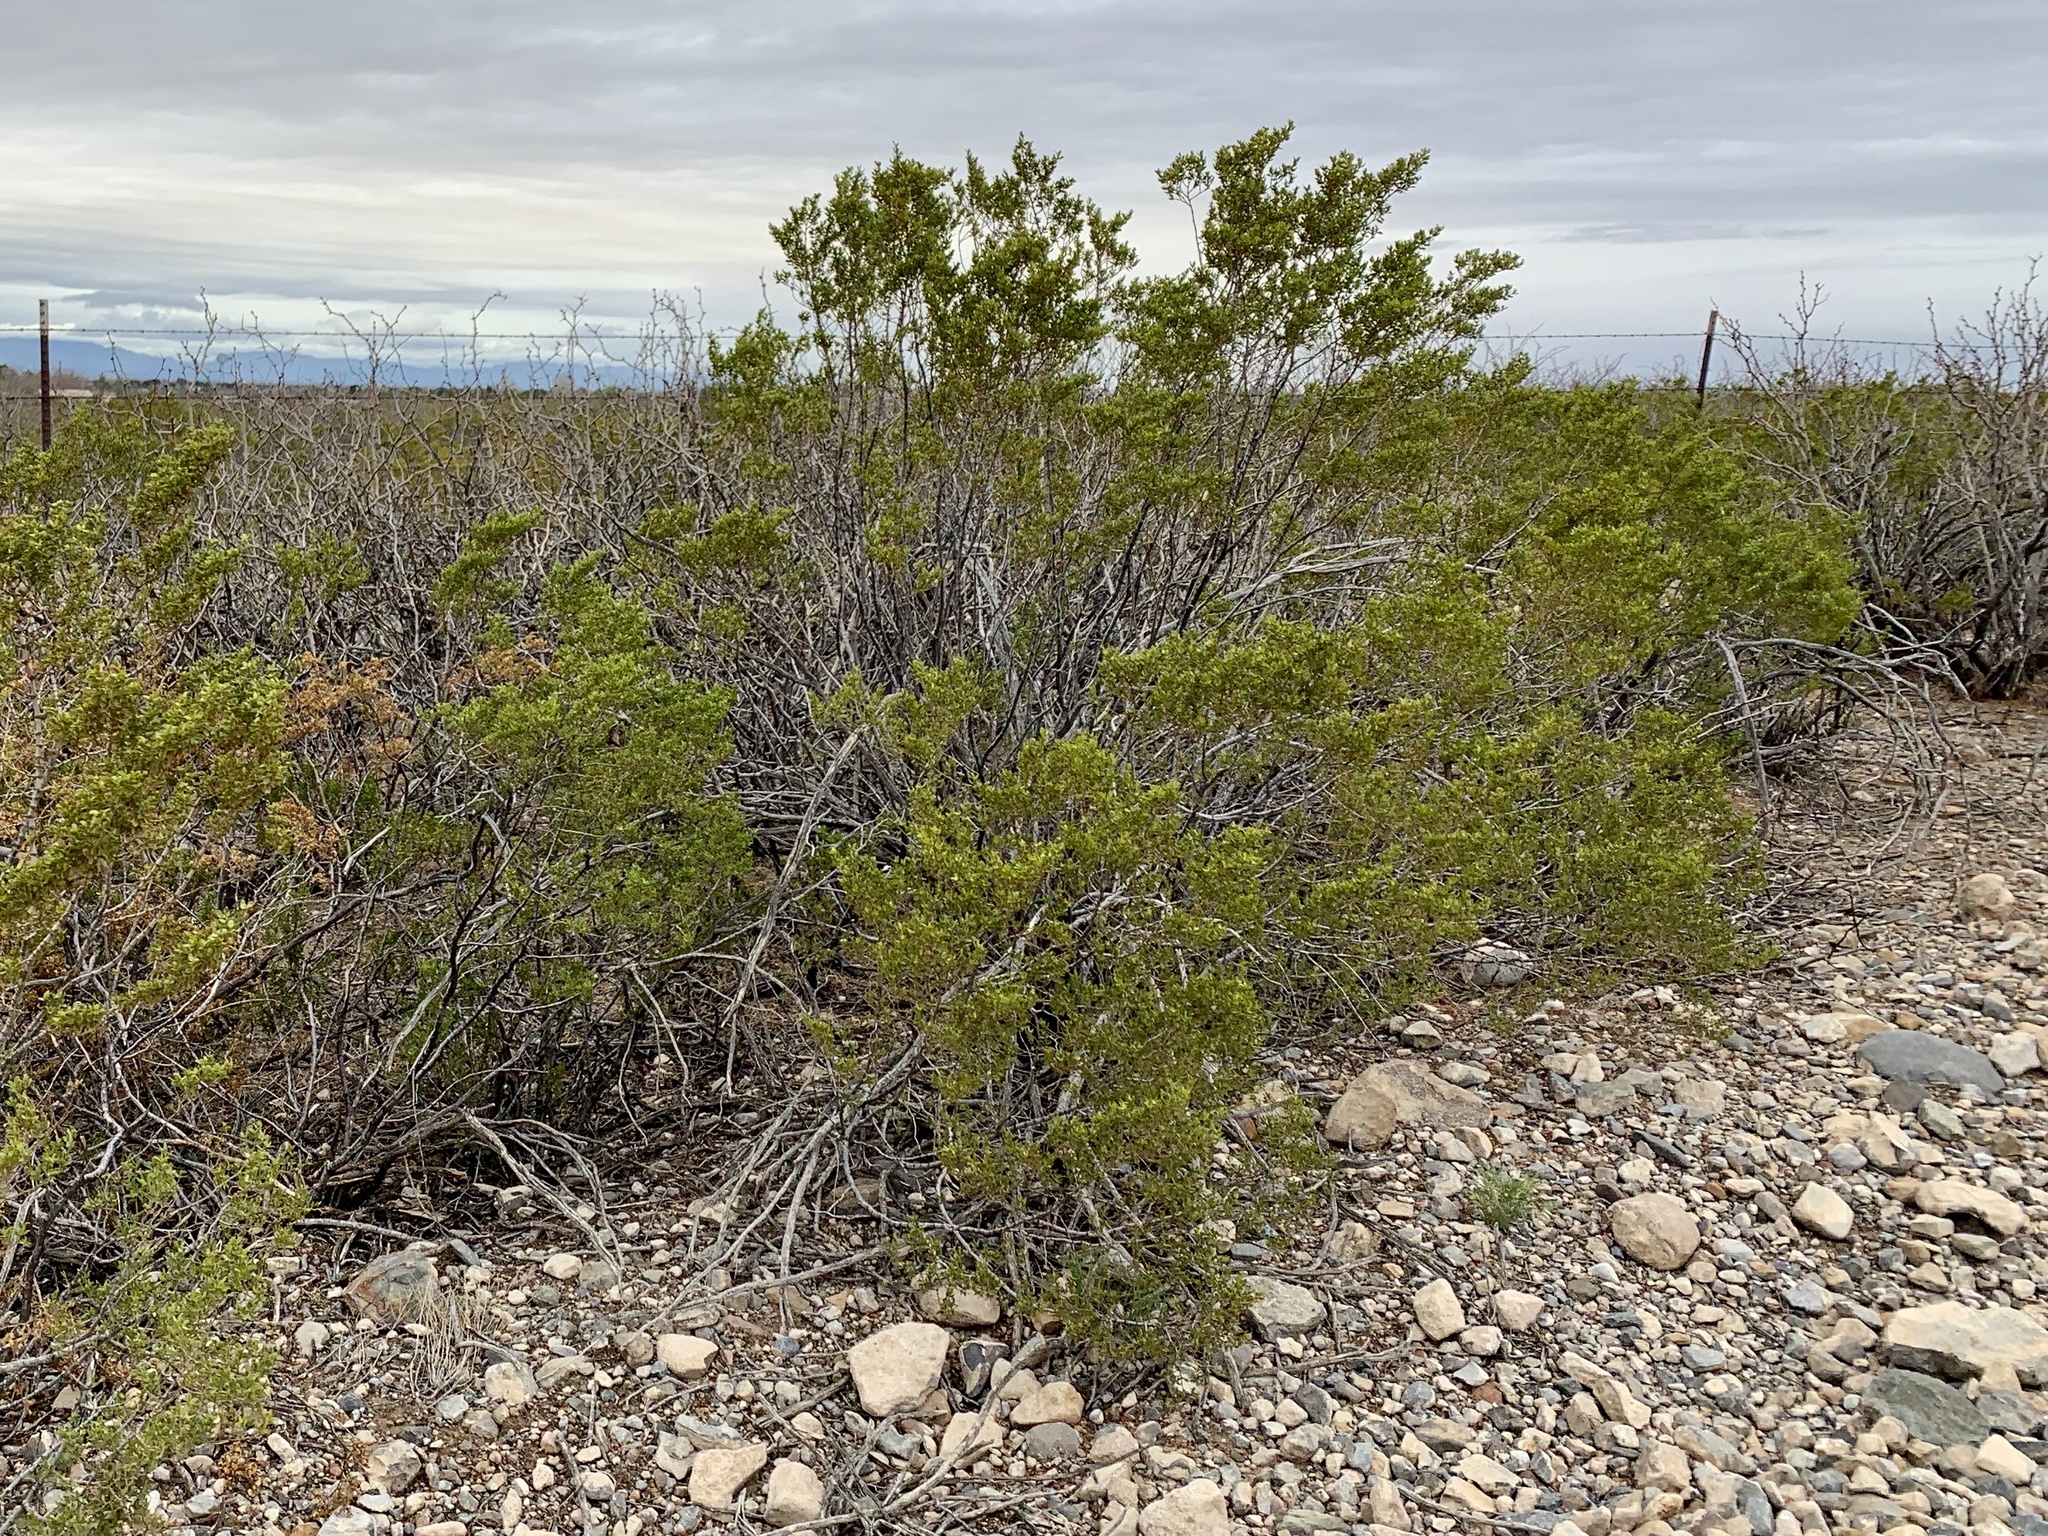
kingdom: Plantae
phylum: Tracheophyta
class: Magnoliopsida
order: Zygophyllales
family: Zygophyllaceae
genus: Larrea
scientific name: Larrea tridentata
